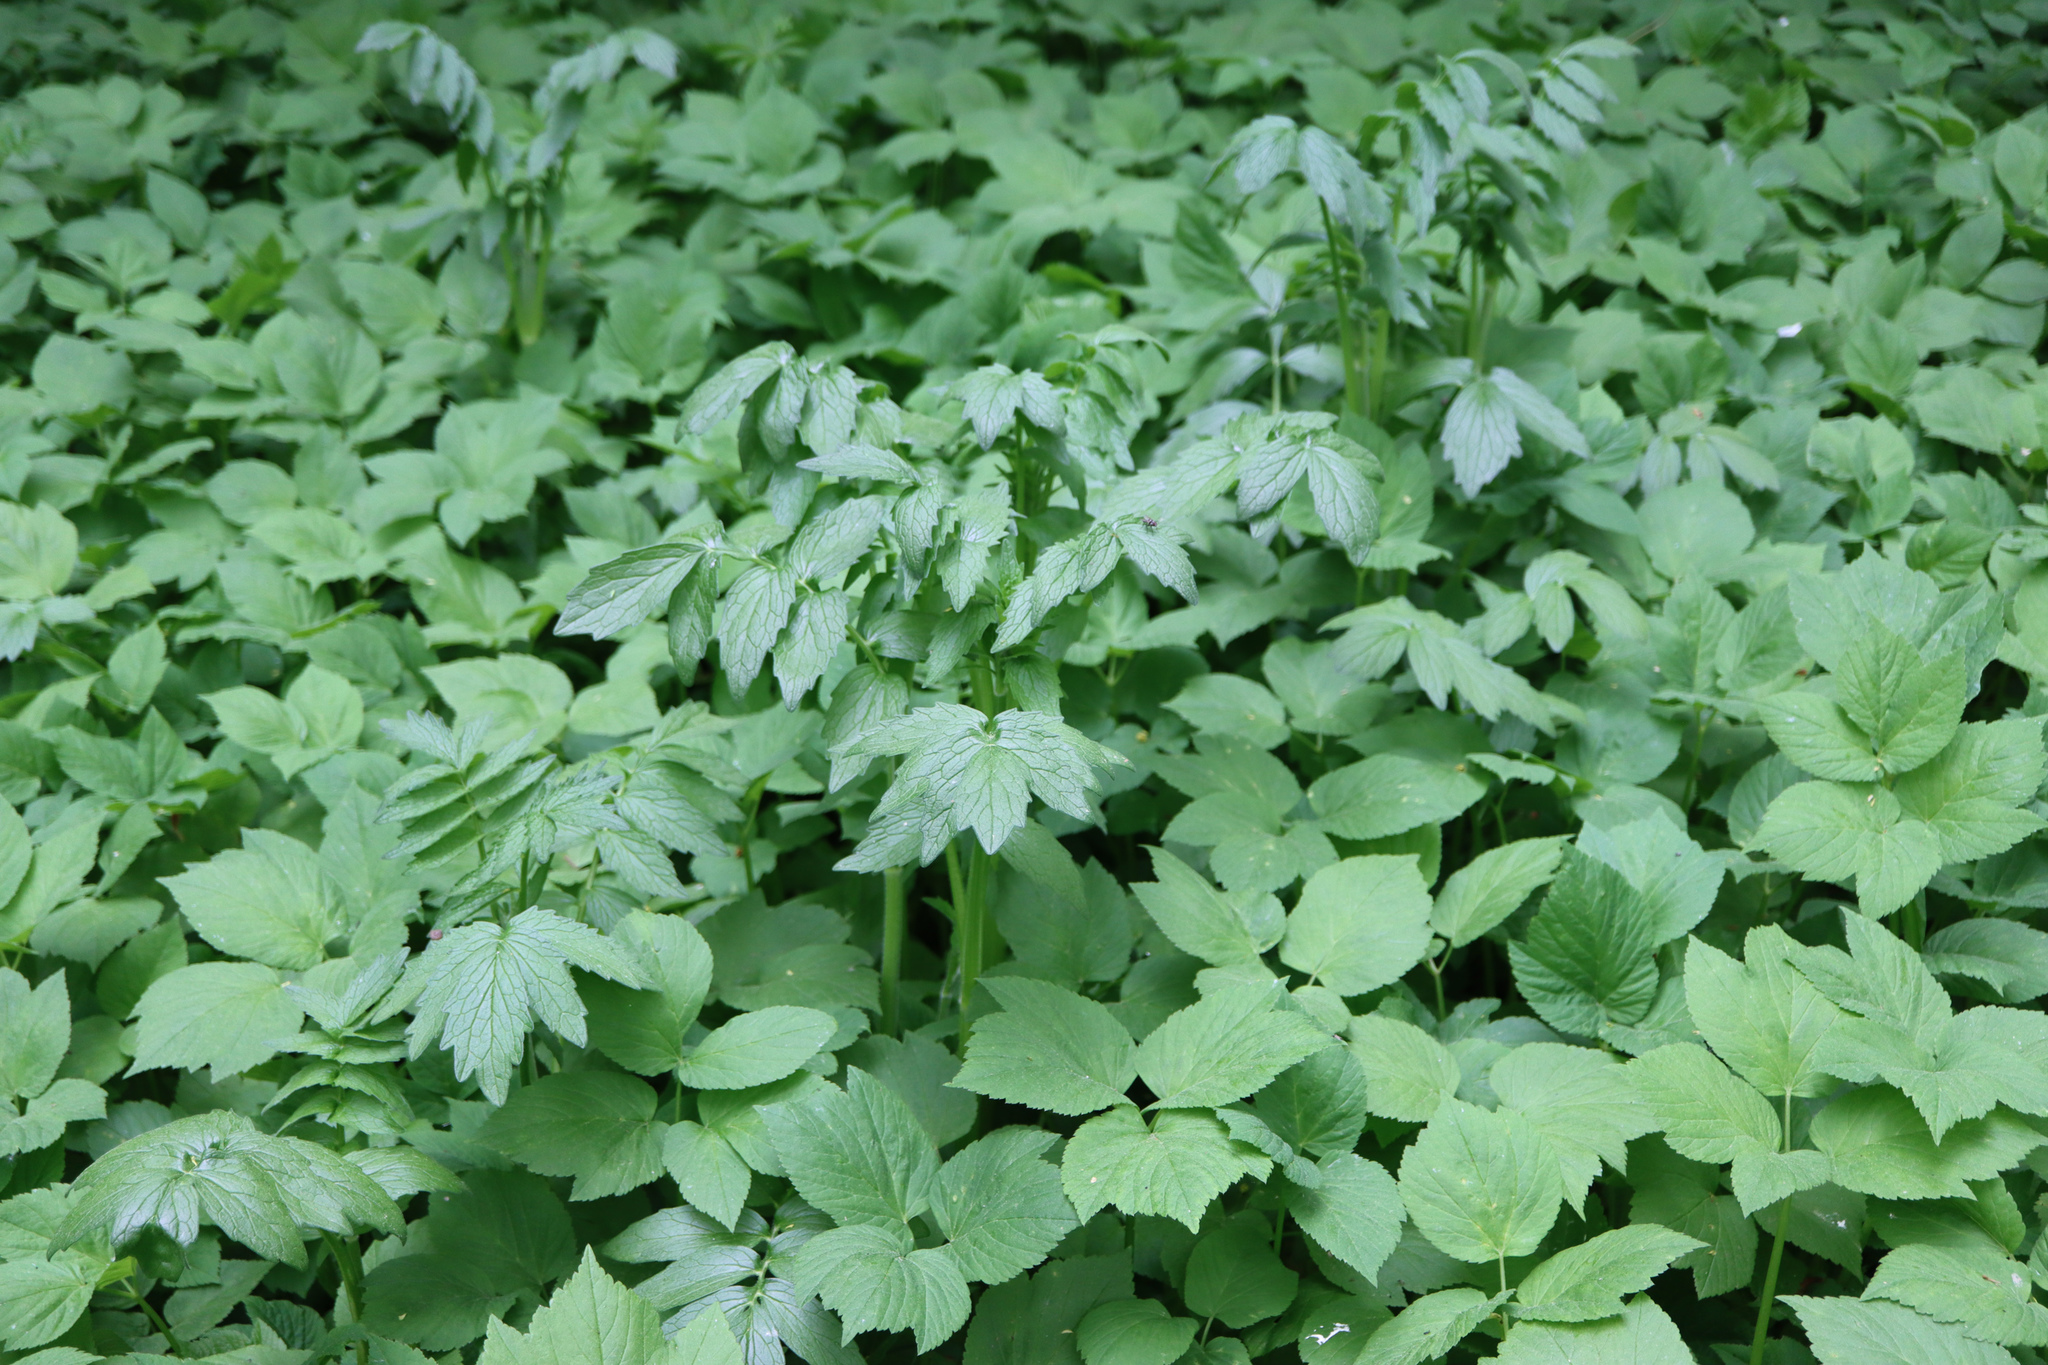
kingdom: Plantae
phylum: Tracheophyta
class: Magnoliopsida
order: Dipsacales
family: Caprifoliaceae
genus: Valeriana
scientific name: Valeriana officinalis
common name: Common valerian
